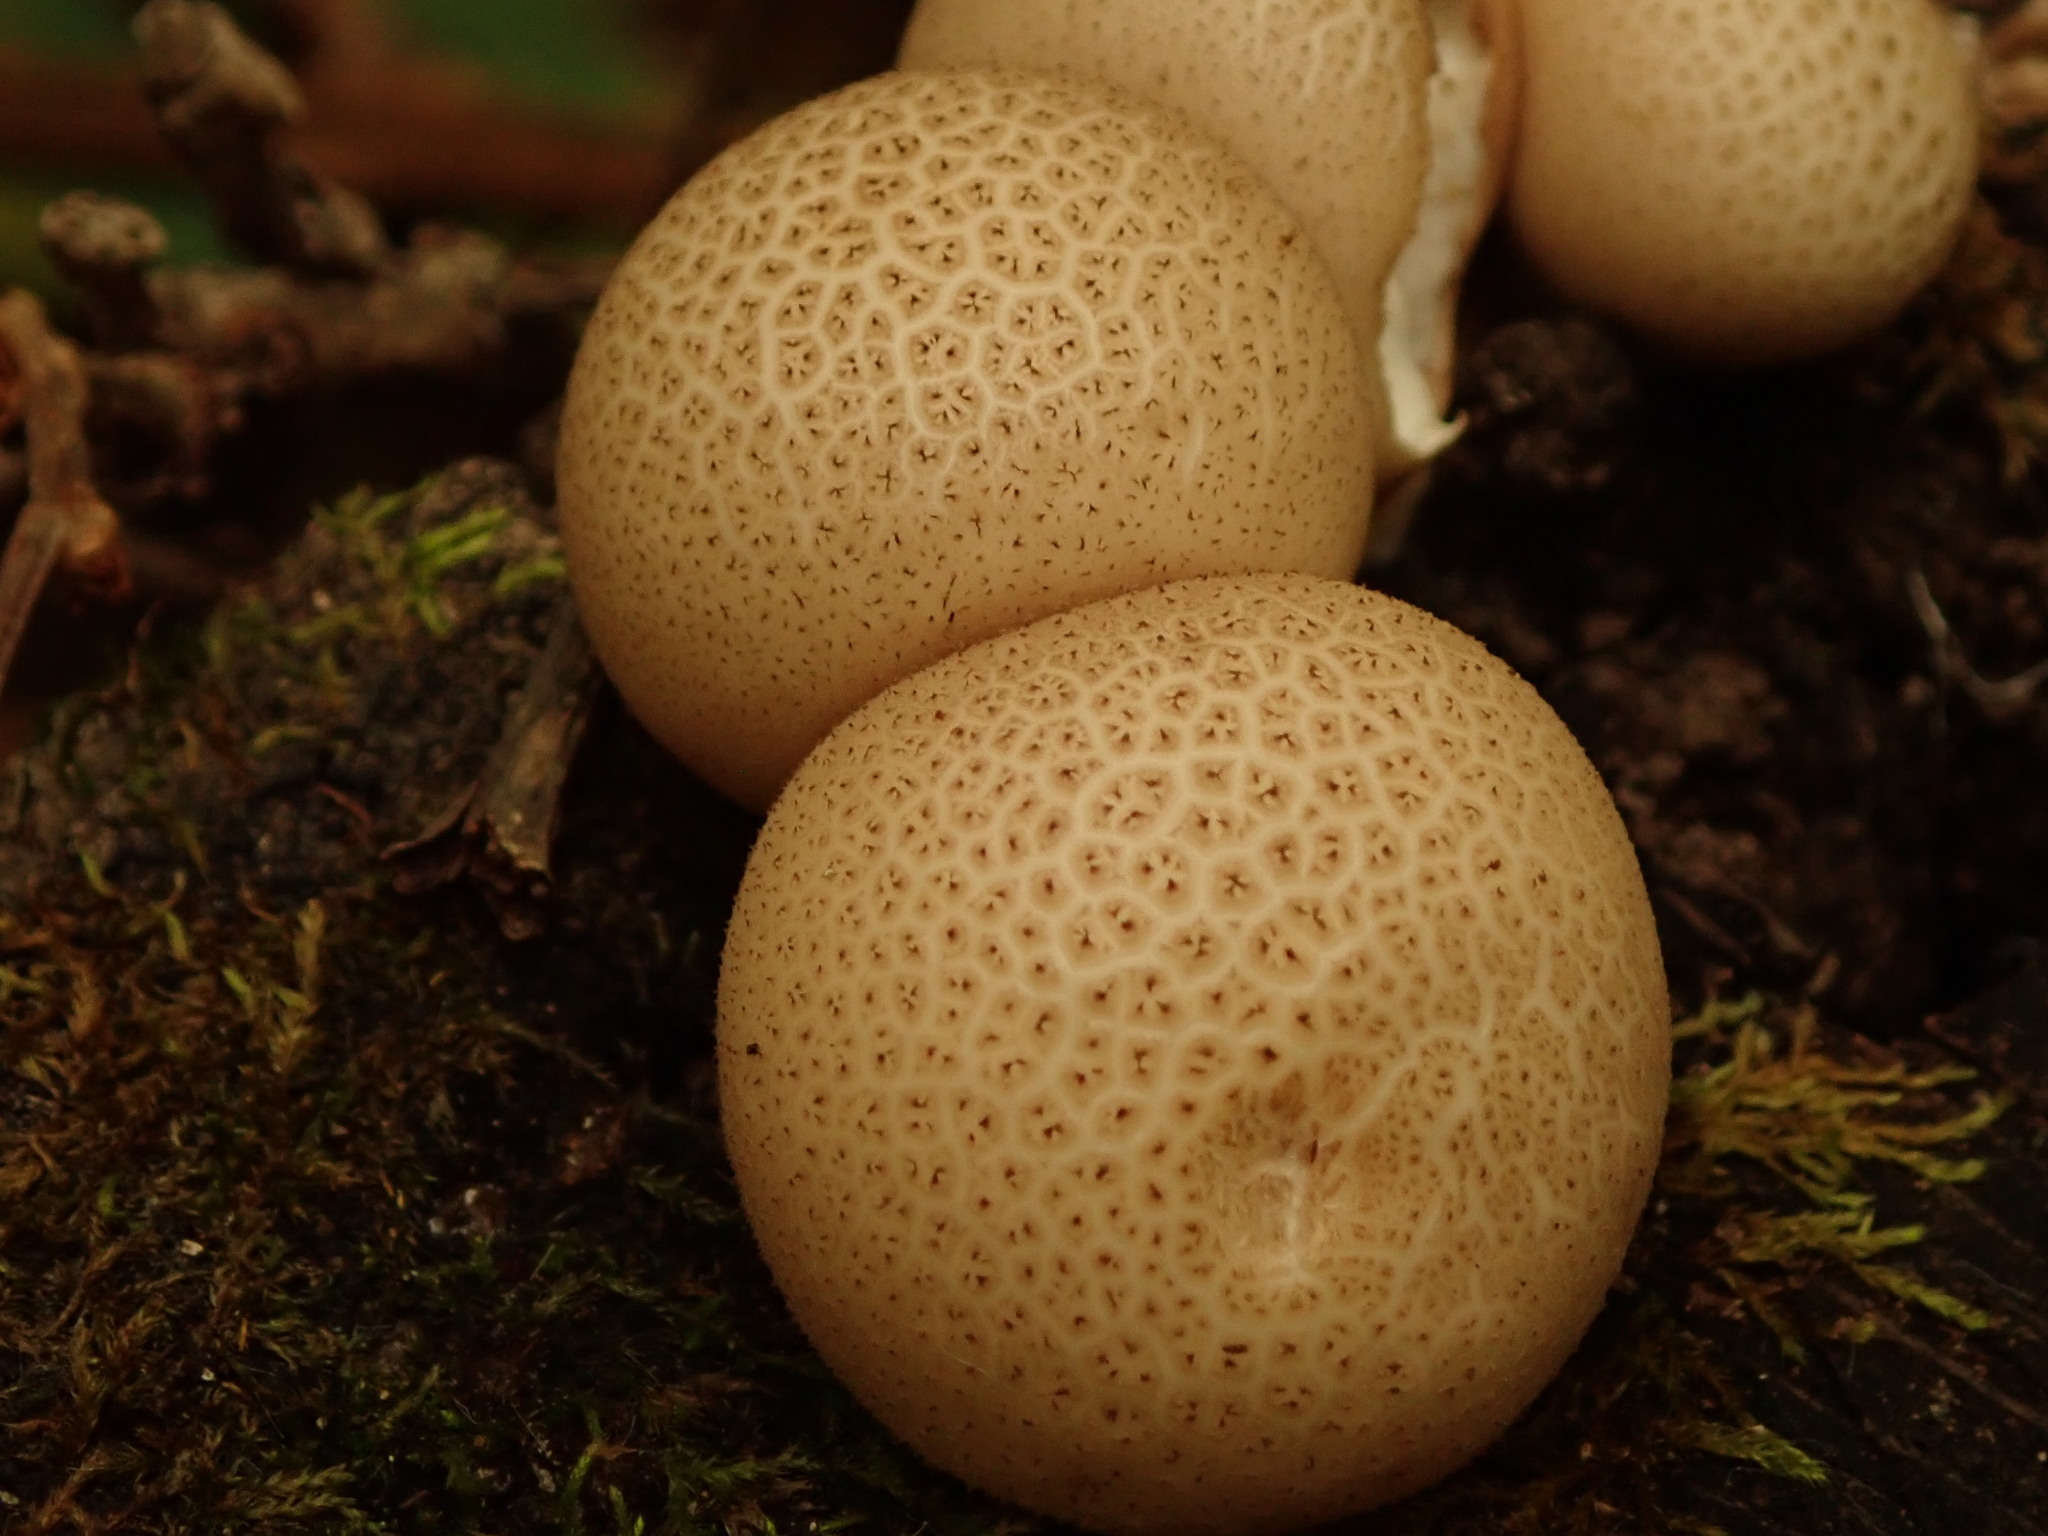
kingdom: Fungi
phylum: Basidiomycota
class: Agaricomycetes
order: Agaricales
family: Lycoperdaceae
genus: Apioperdon
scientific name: Apioperdon pyriforme
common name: Pear-shaped puffball
